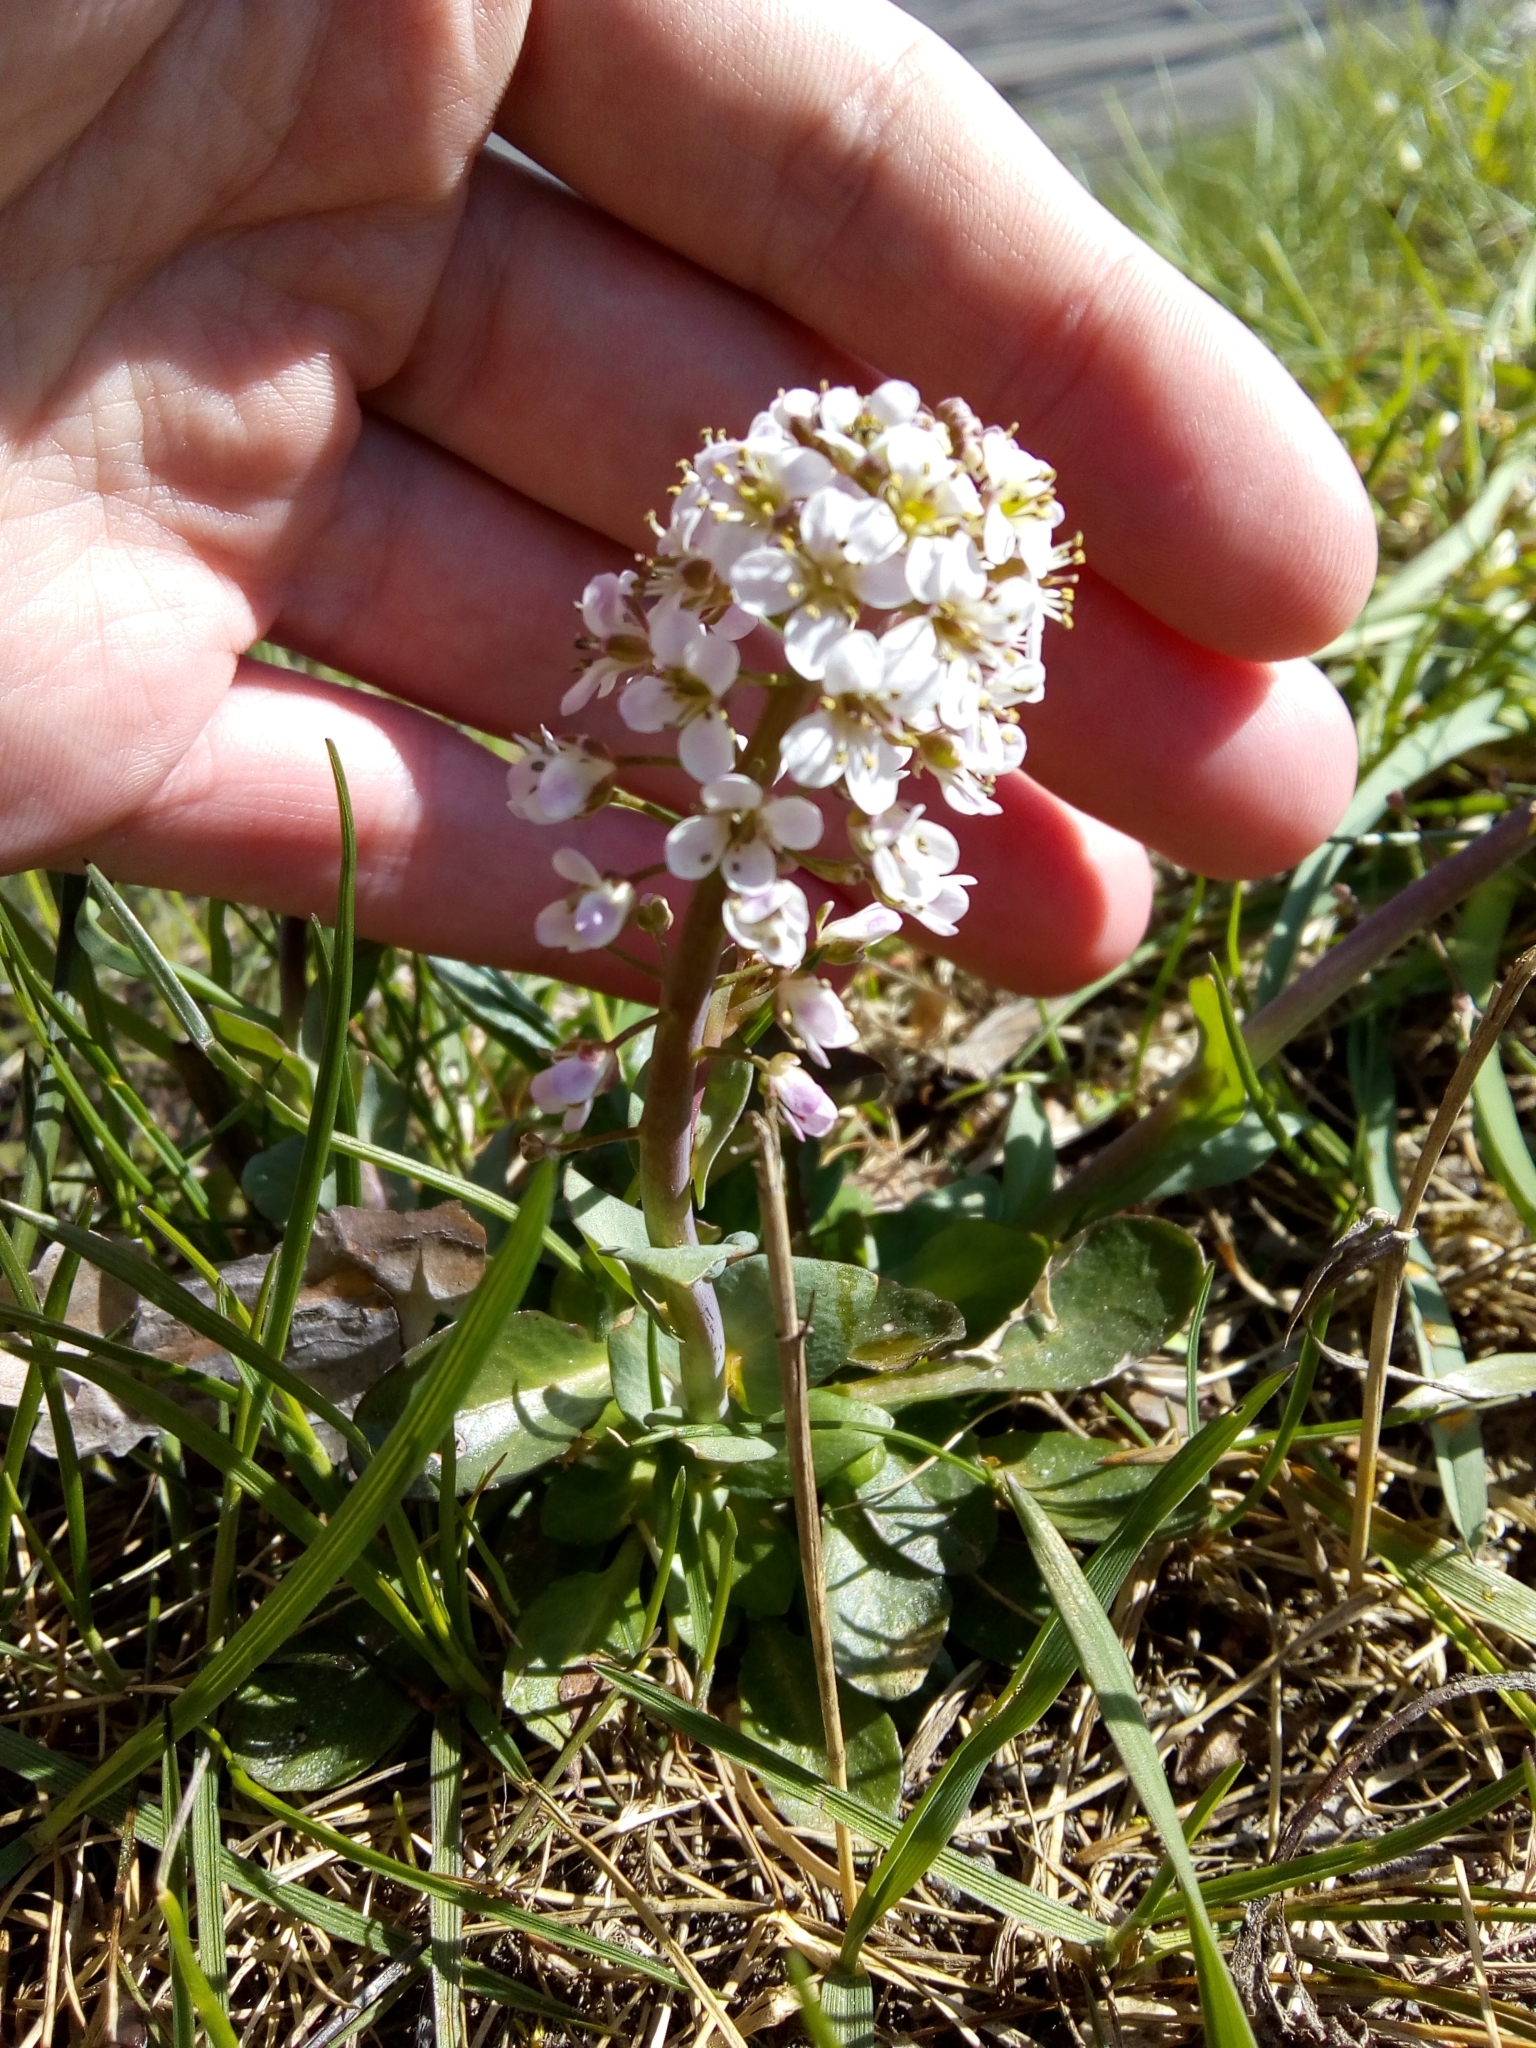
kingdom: Plantae
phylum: Tracheophyta
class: Magnoliopsida
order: Brassicales
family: Brassicaceae
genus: Noccaea
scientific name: Noccaea caerulescens
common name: Alpine pennycress
